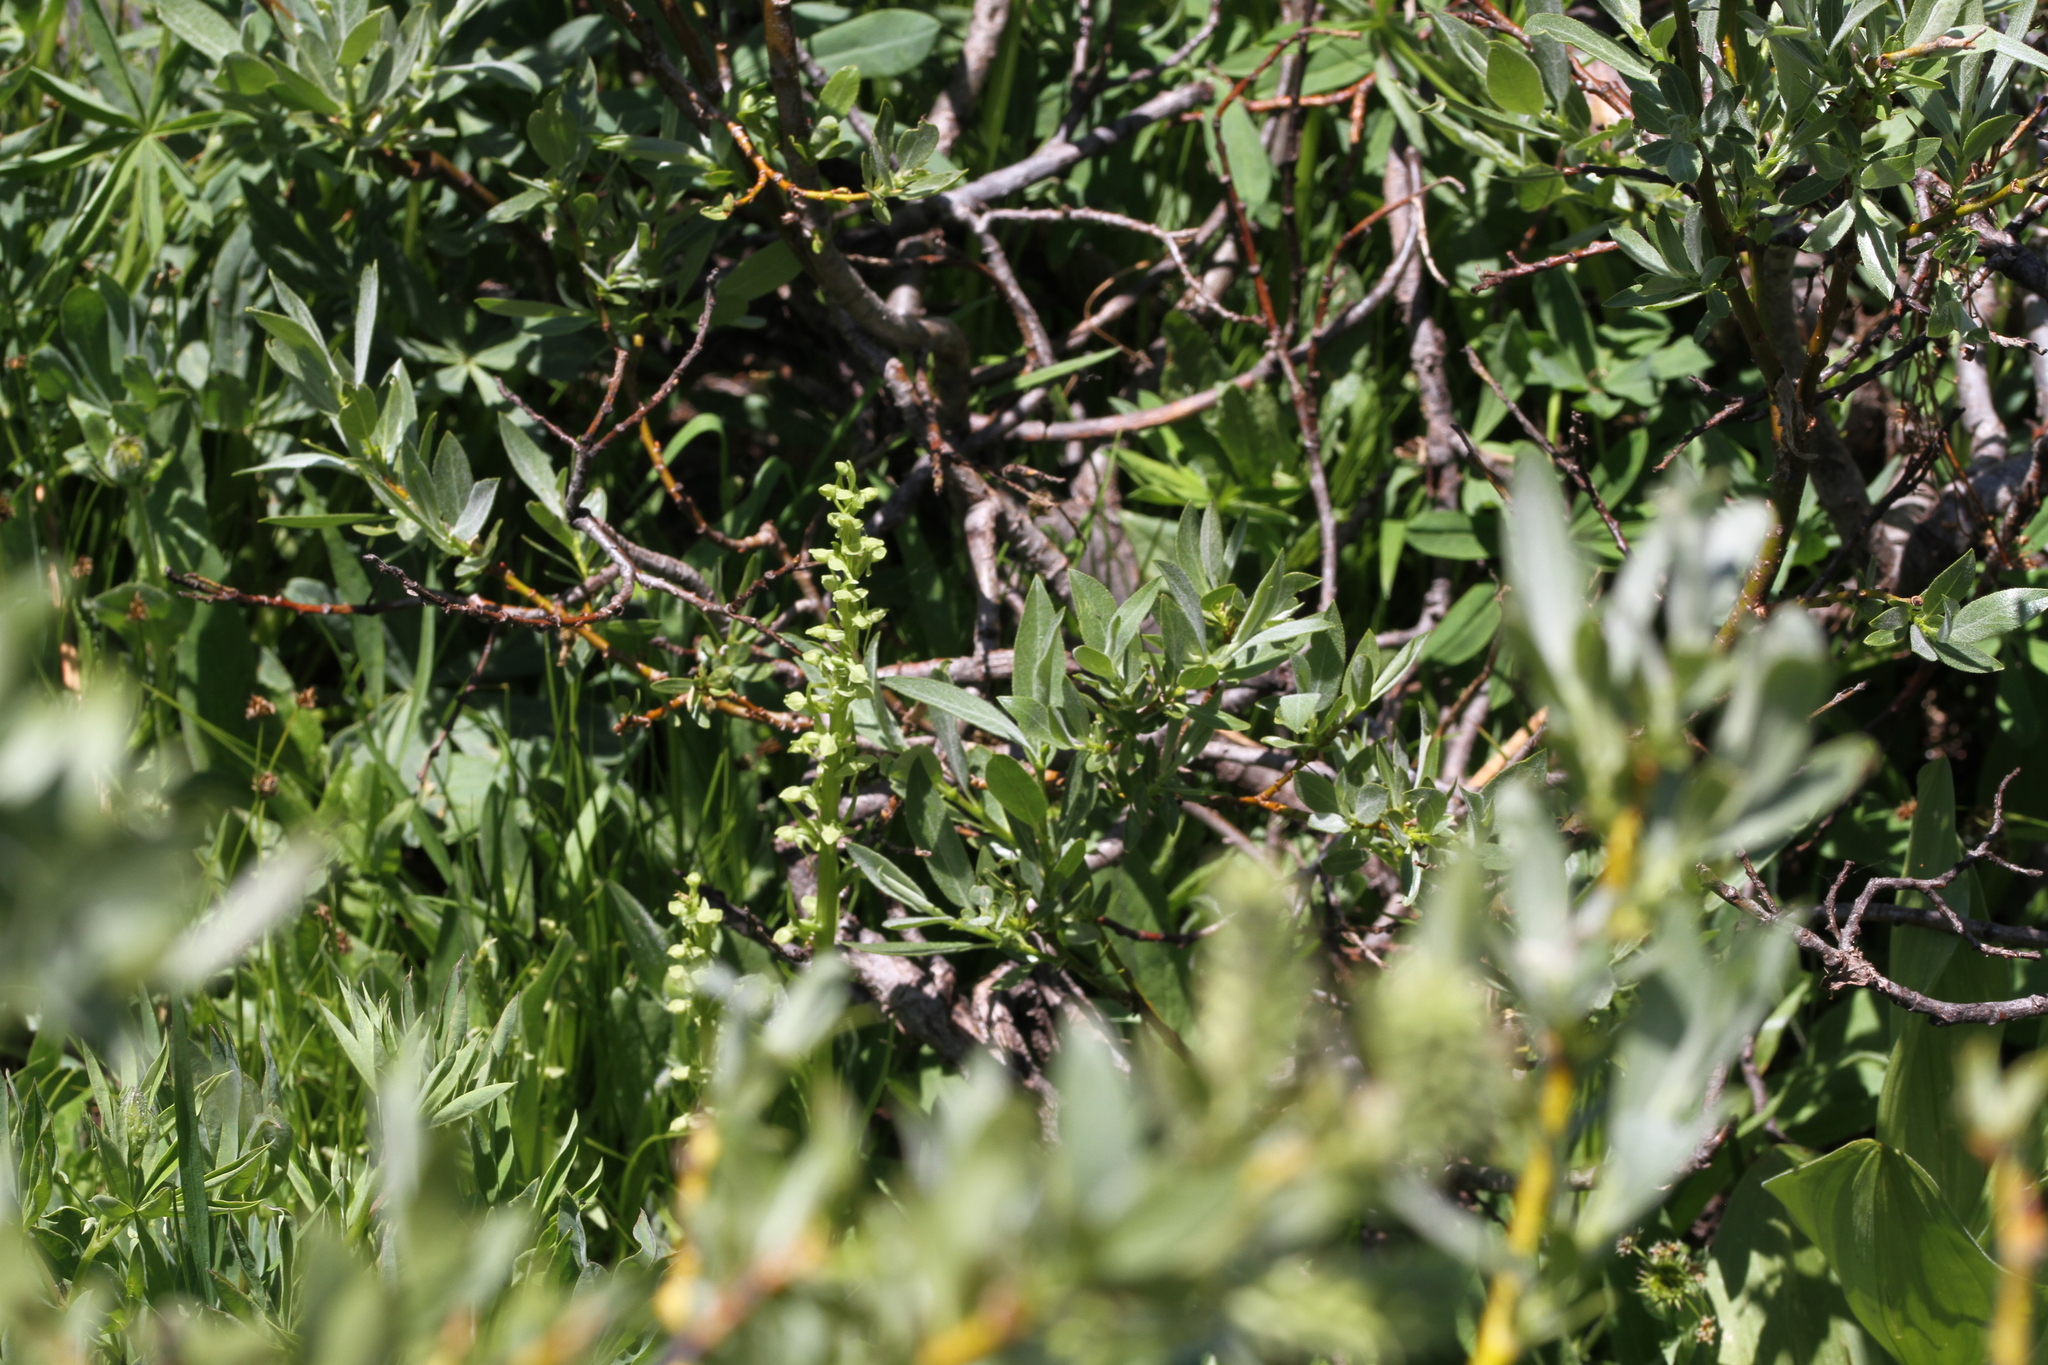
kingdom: Plantae
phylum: Tracheophyta
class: Liliopsida
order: Asparagales
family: Orchidaceae
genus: Platanthera
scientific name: Platanthera sparsiflora
